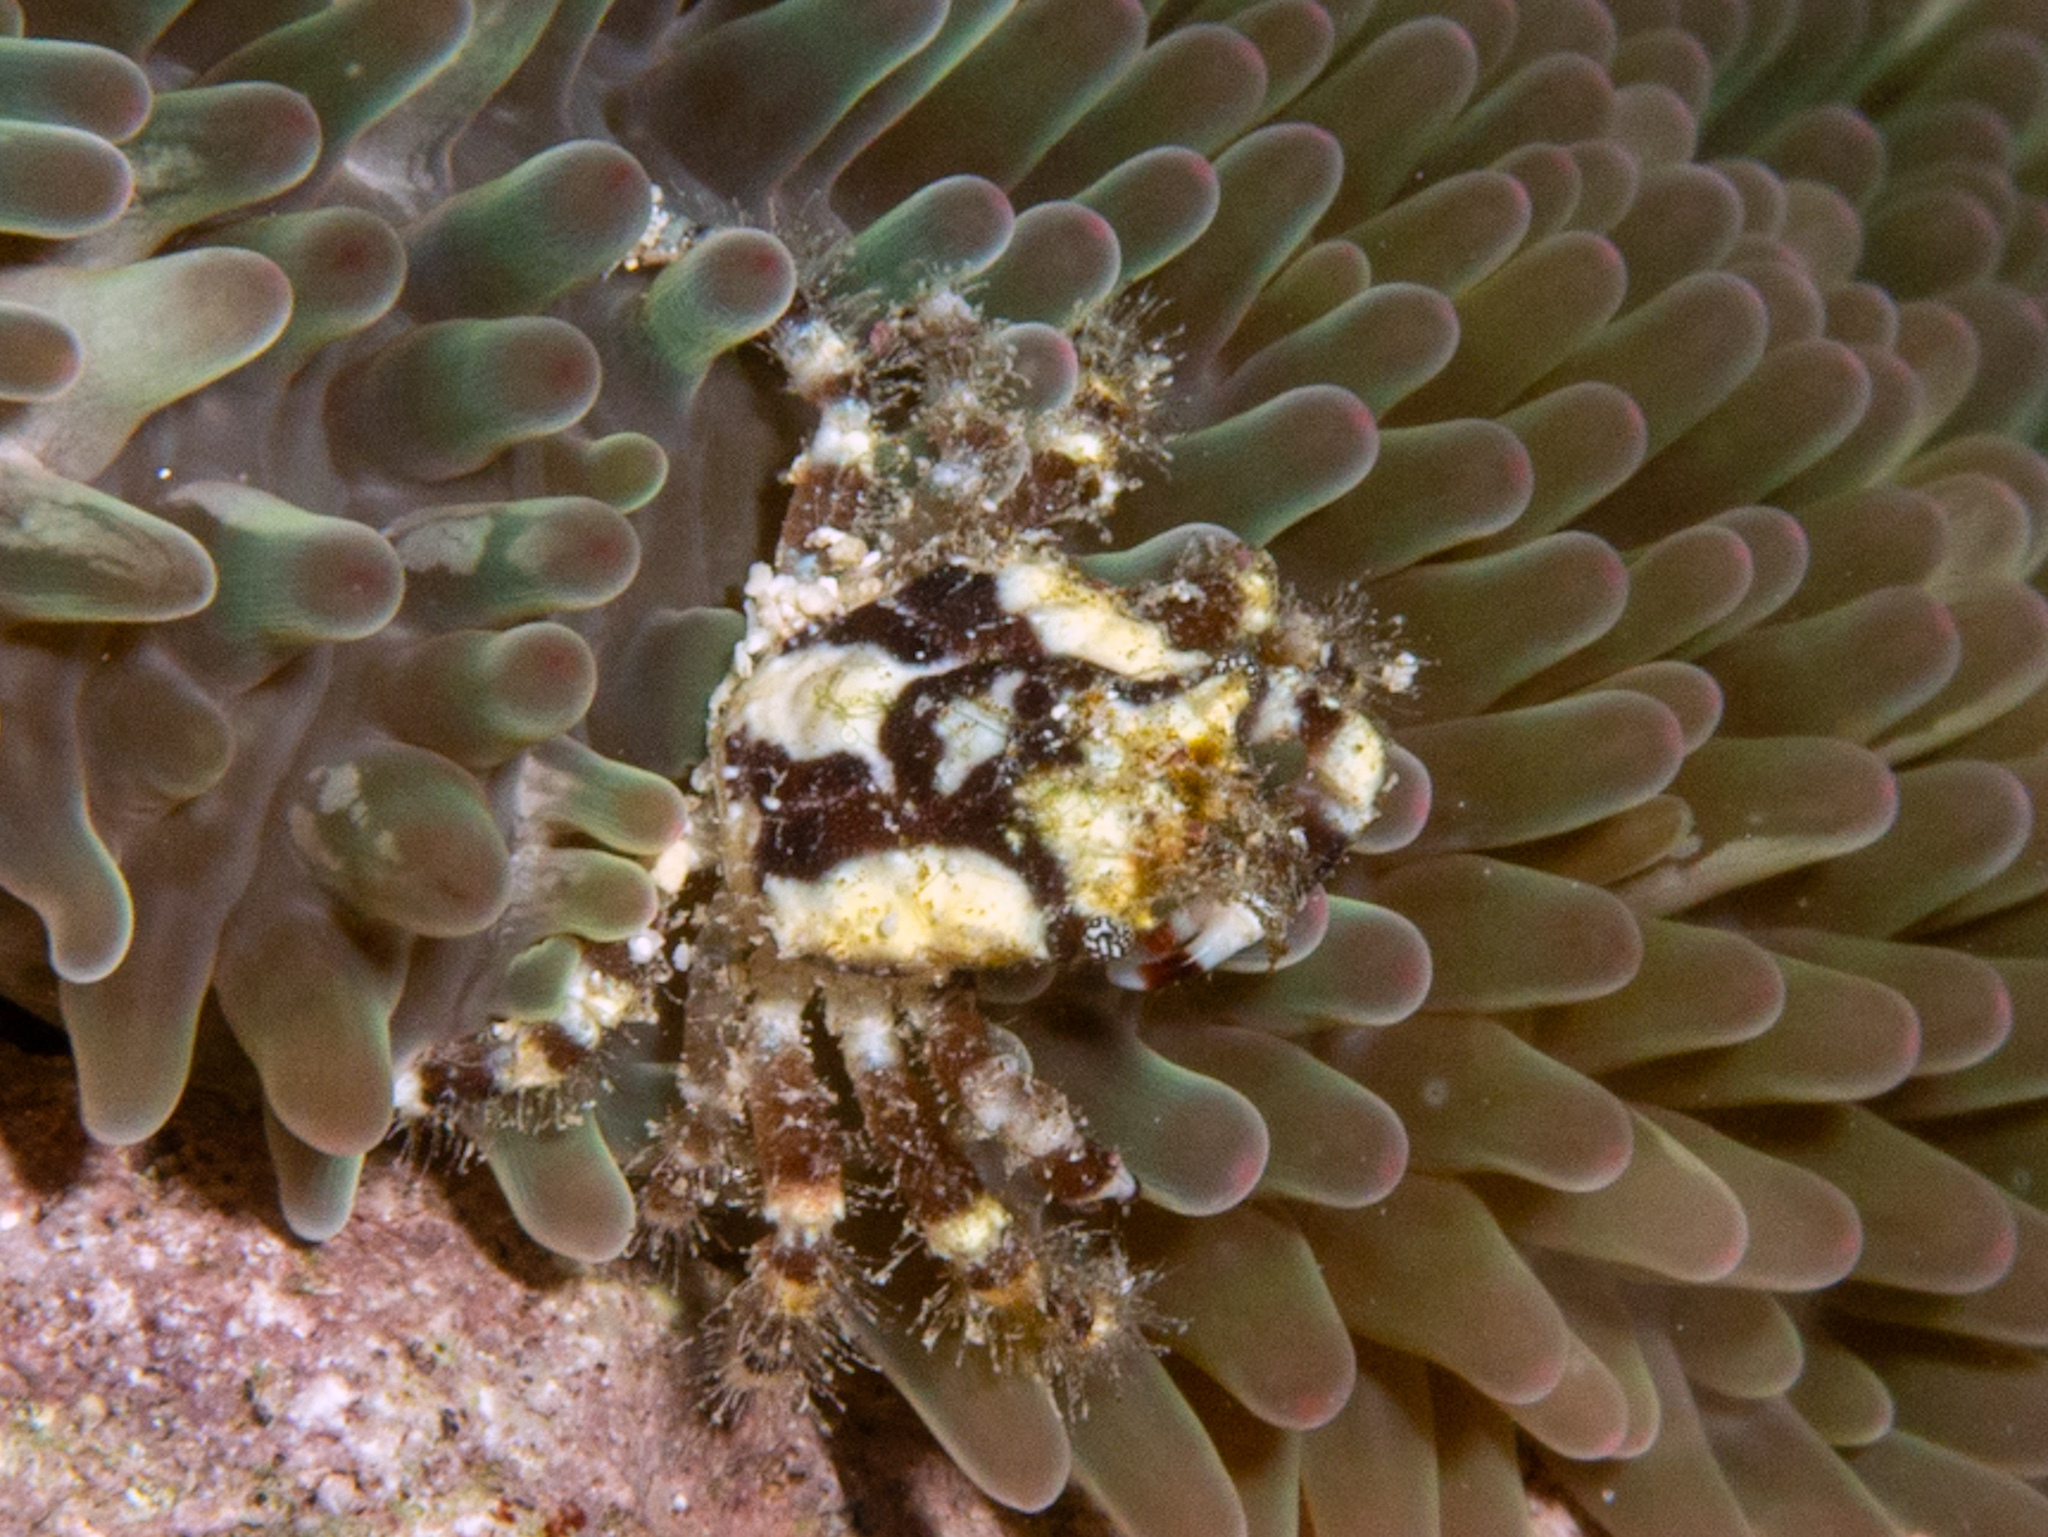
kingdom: Animalia
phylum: Arthropoda
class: Malacostraca
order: Decapoda
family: Mithracidae
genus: Mithraculus
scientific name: Mithraculus cinctimanus
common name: Banded clinging crab
